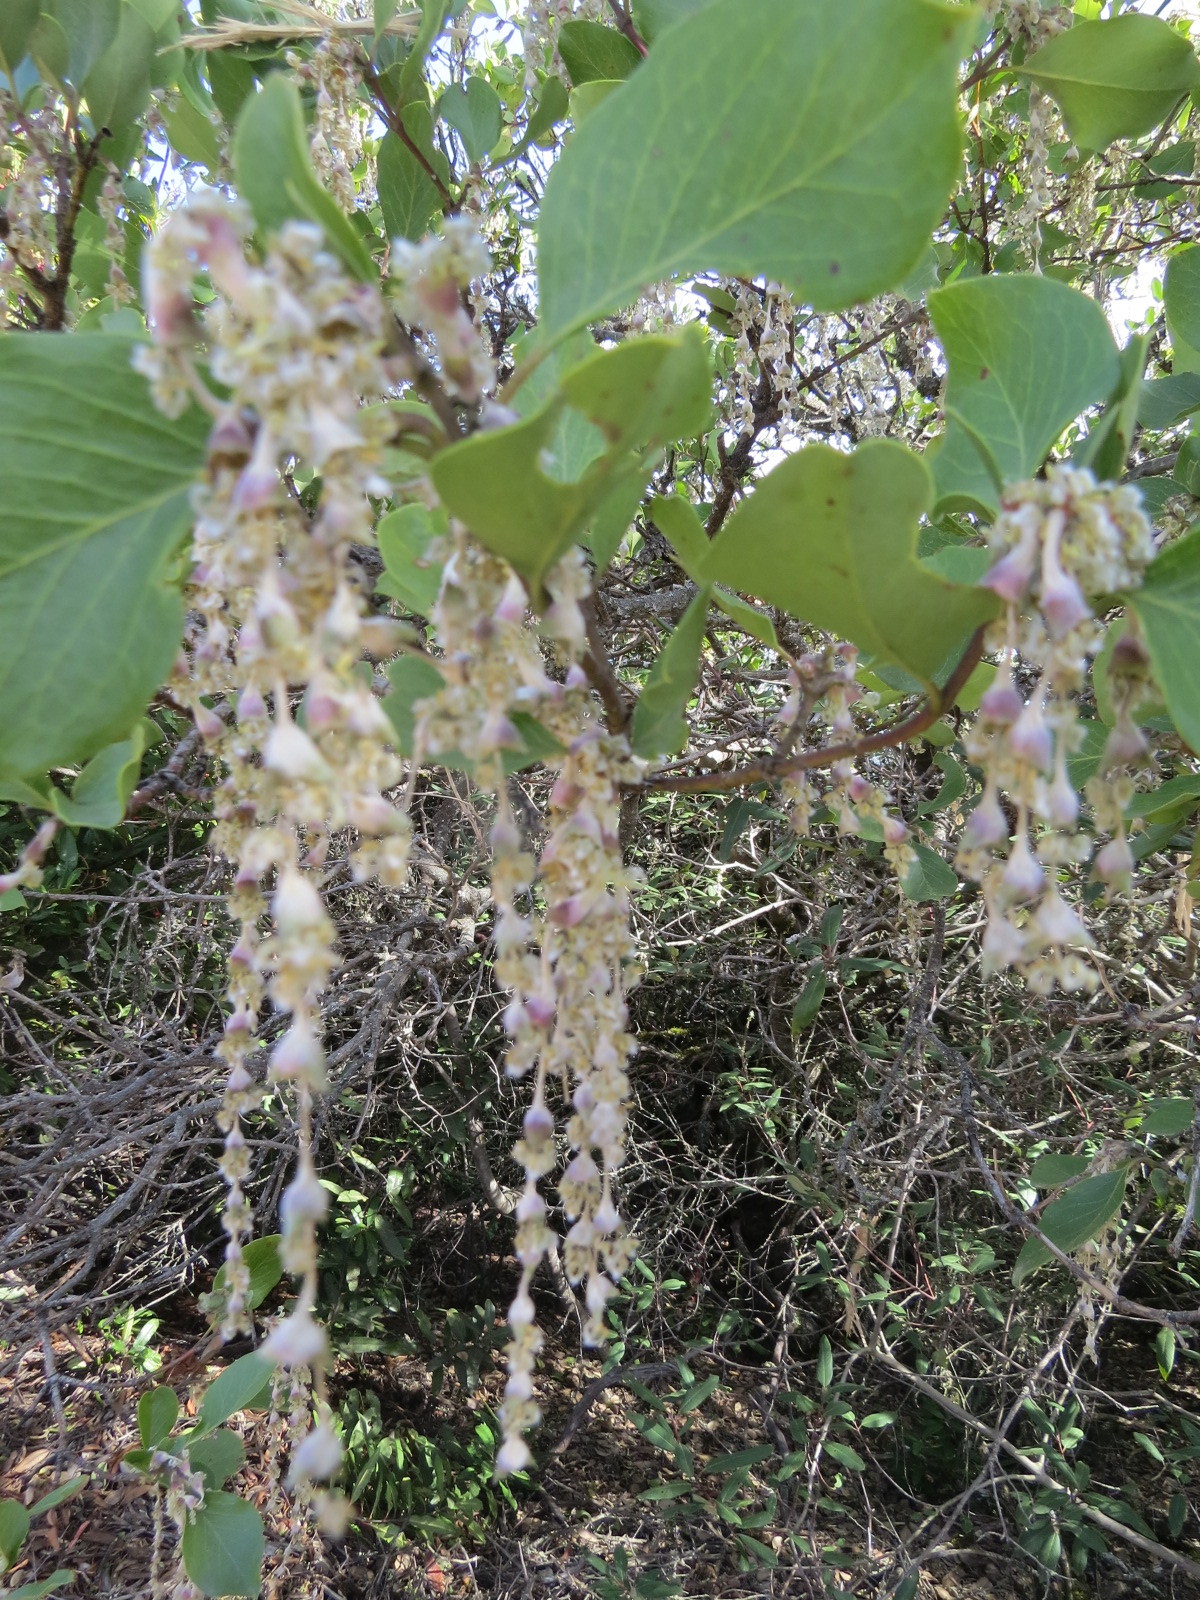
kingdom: Plantae
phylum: Tracheophyta
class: Magnoliopsida
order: Garryales
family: Garryaceae
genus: Garrya
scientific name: Garrya elliptica
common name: Silk-tassel
